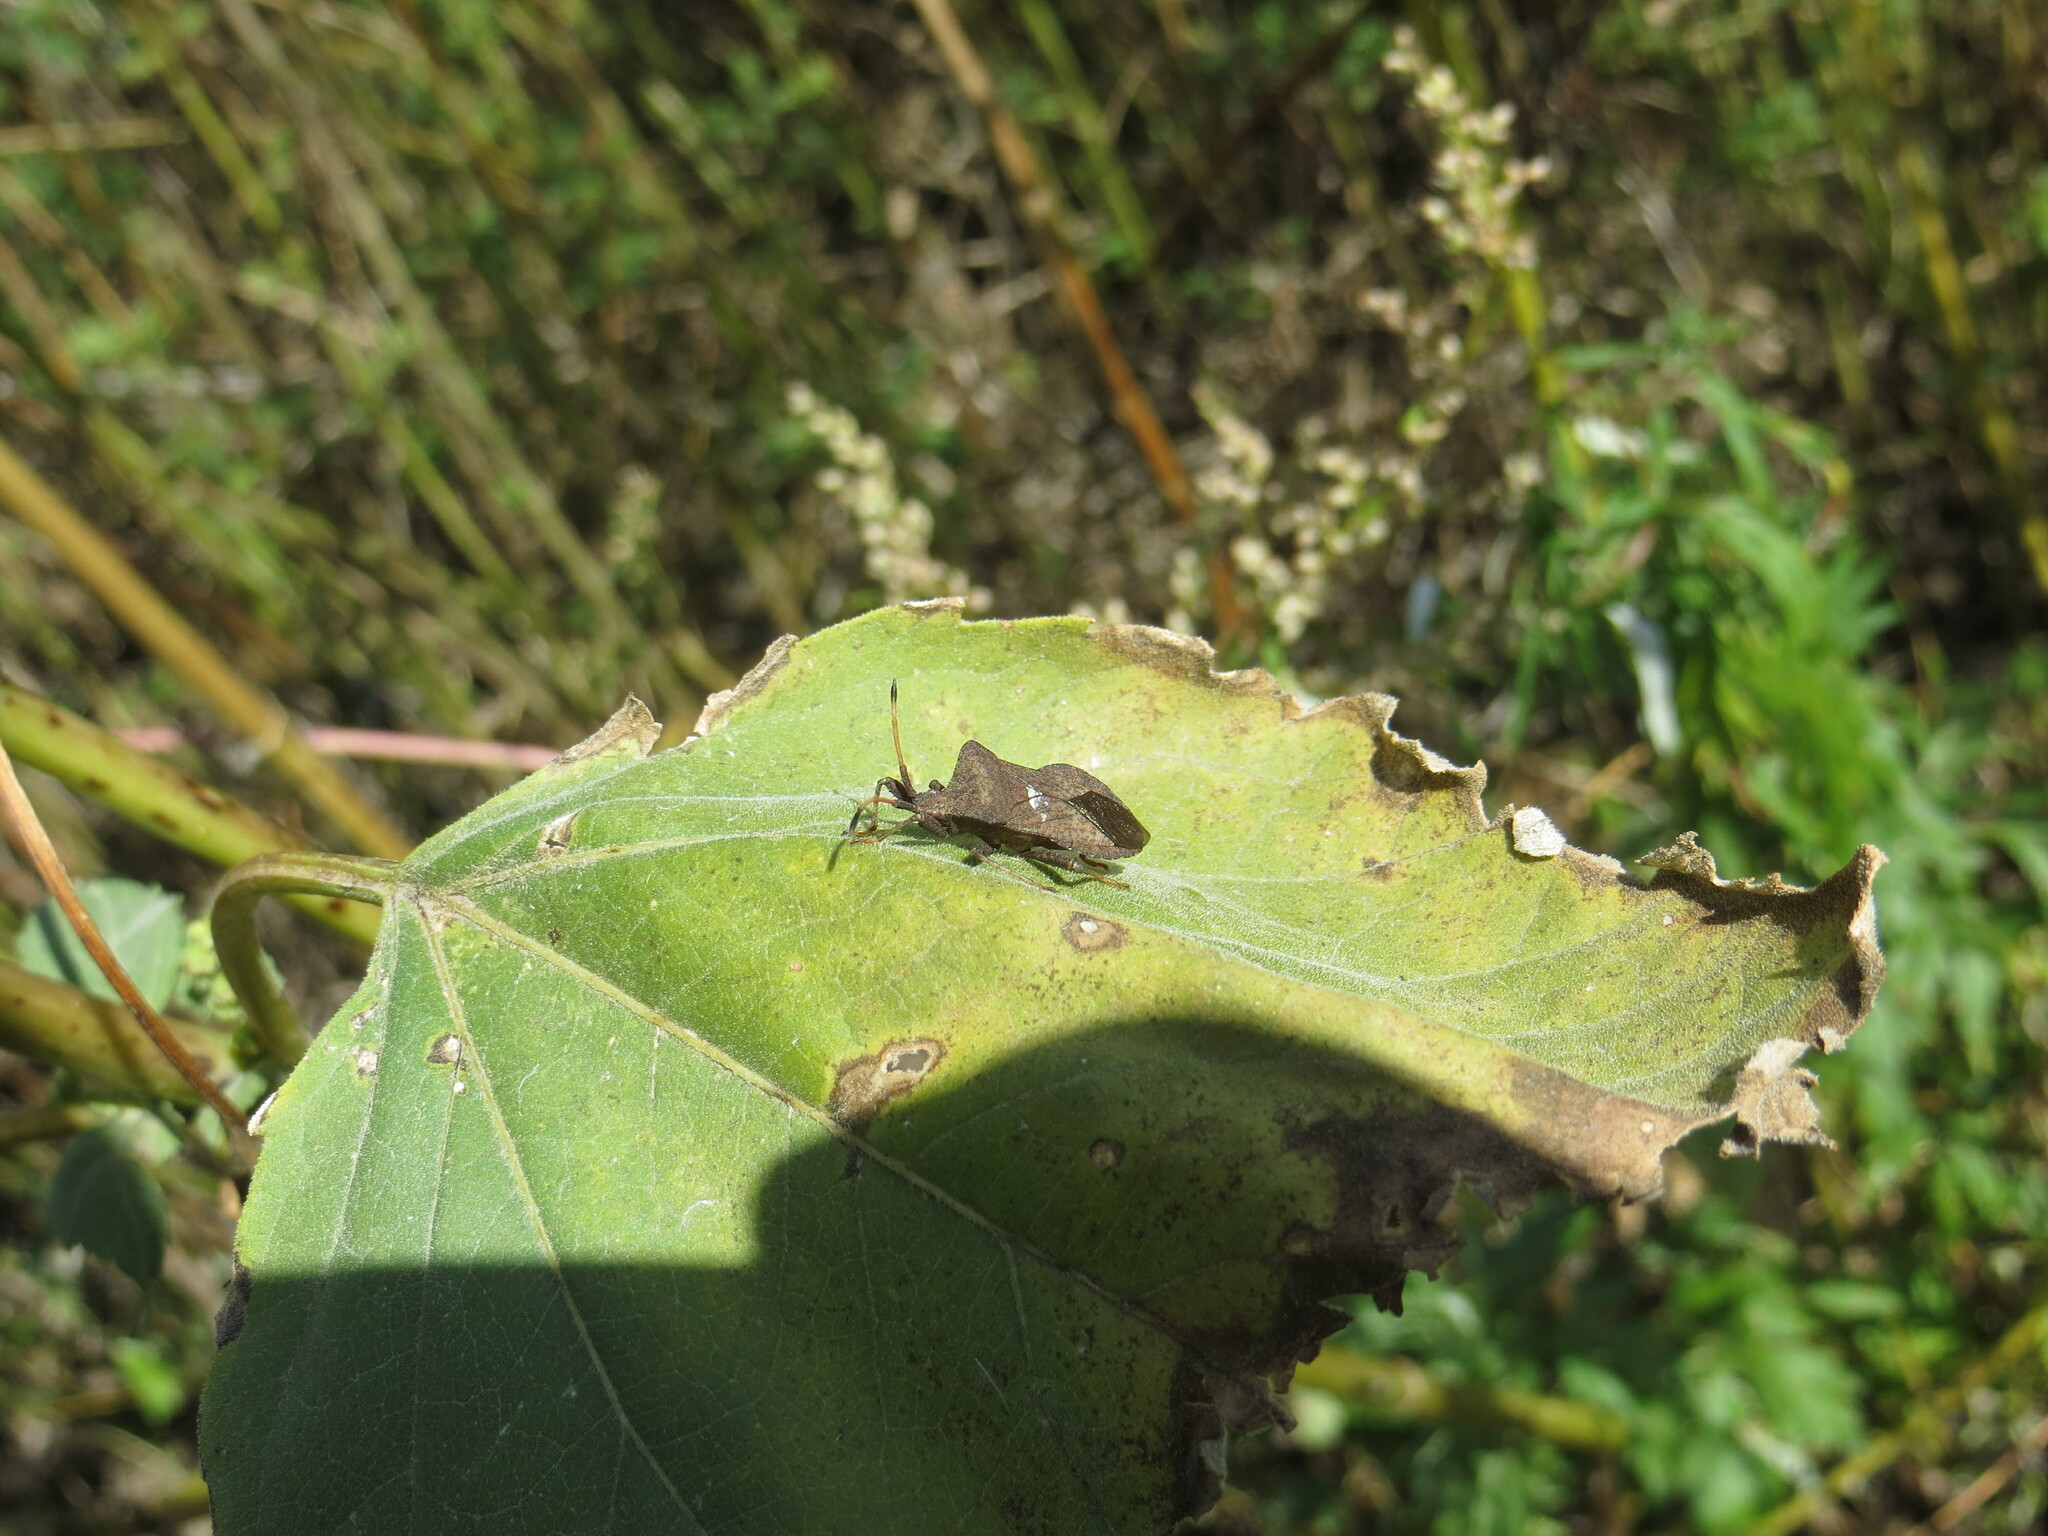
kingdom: Animalia
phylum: Arthropoda
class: Insecta
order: Hemiptera
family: Coreidae
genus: Coreus
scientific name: Coreus marginatus
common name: Dock bug
